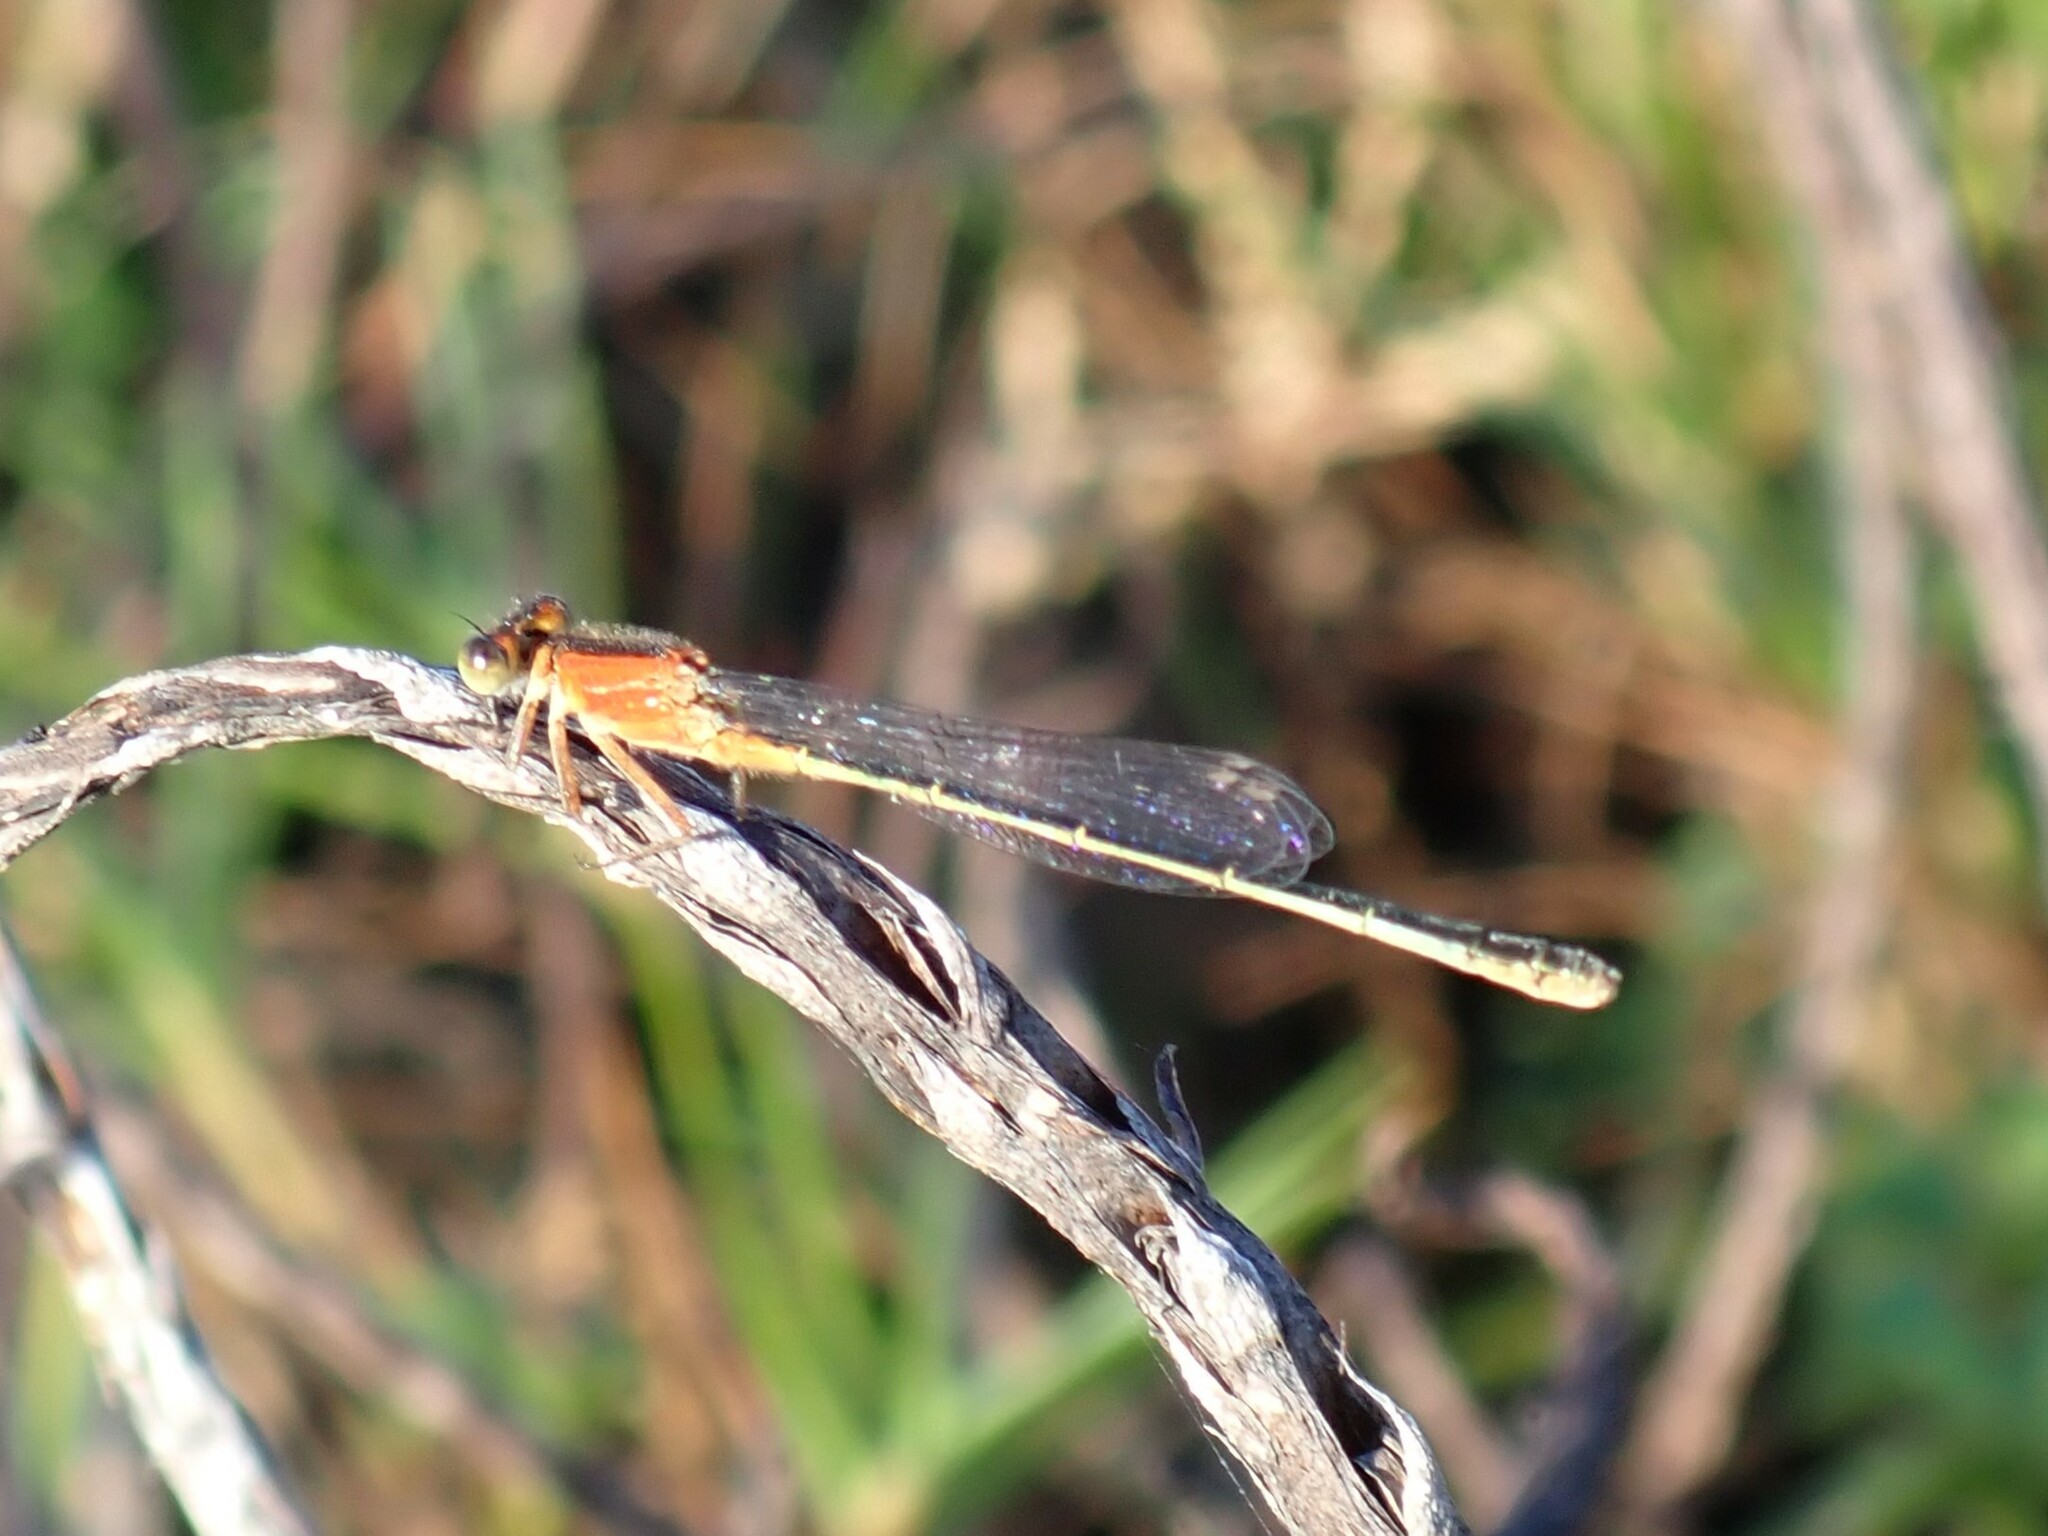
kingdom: Animalia
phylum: Arthropoda
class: Insecta
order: Odonata
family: Coenagrionidae
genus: Ischnura
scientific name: Ischnura ramburii
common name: Rambur's forktail
